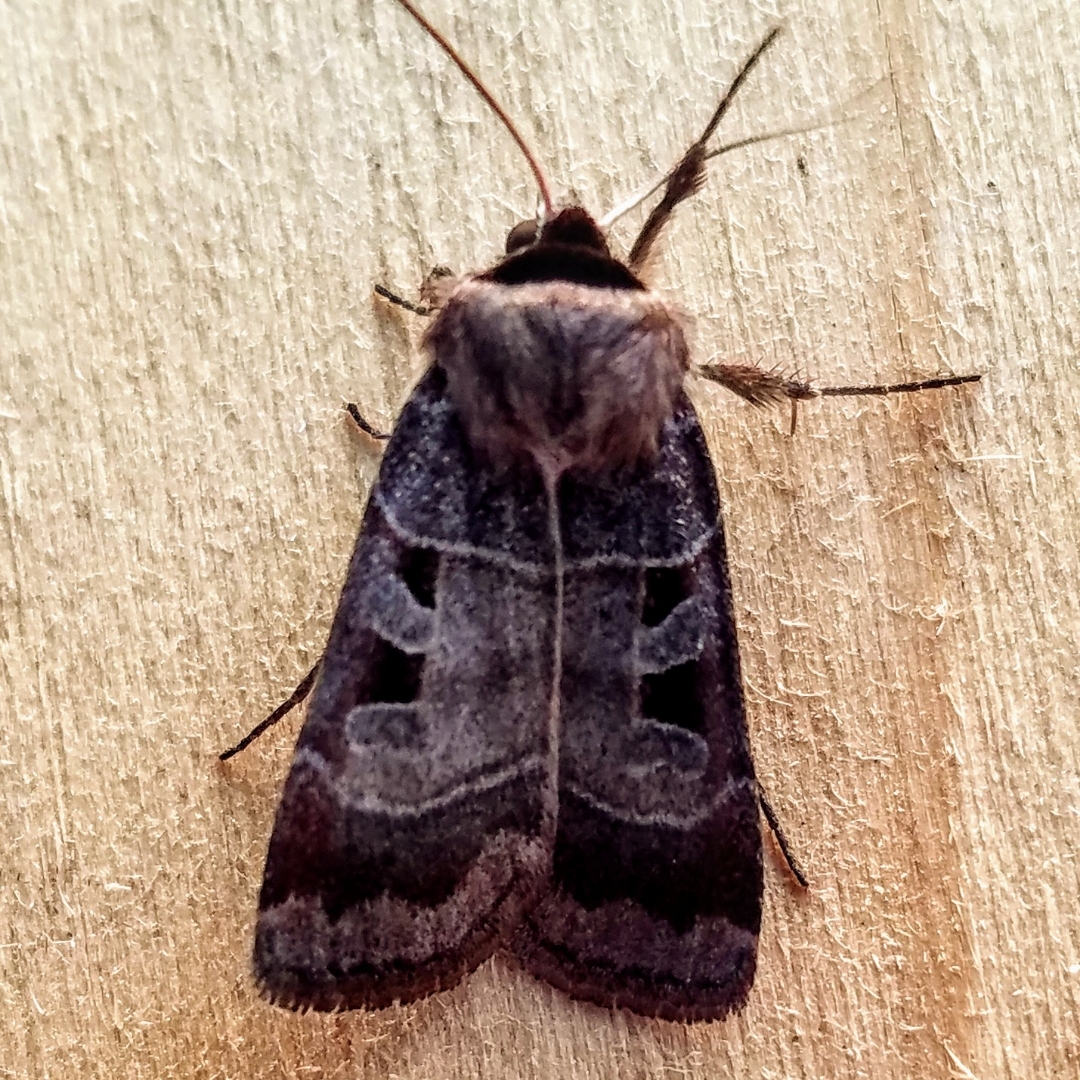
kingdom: Animalia
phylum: Arthropoda
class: Insecta
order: Lepidoptera
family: Noctuidae
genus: Agnorisma
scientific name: Agnorisma bugrai
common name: Collared dart
